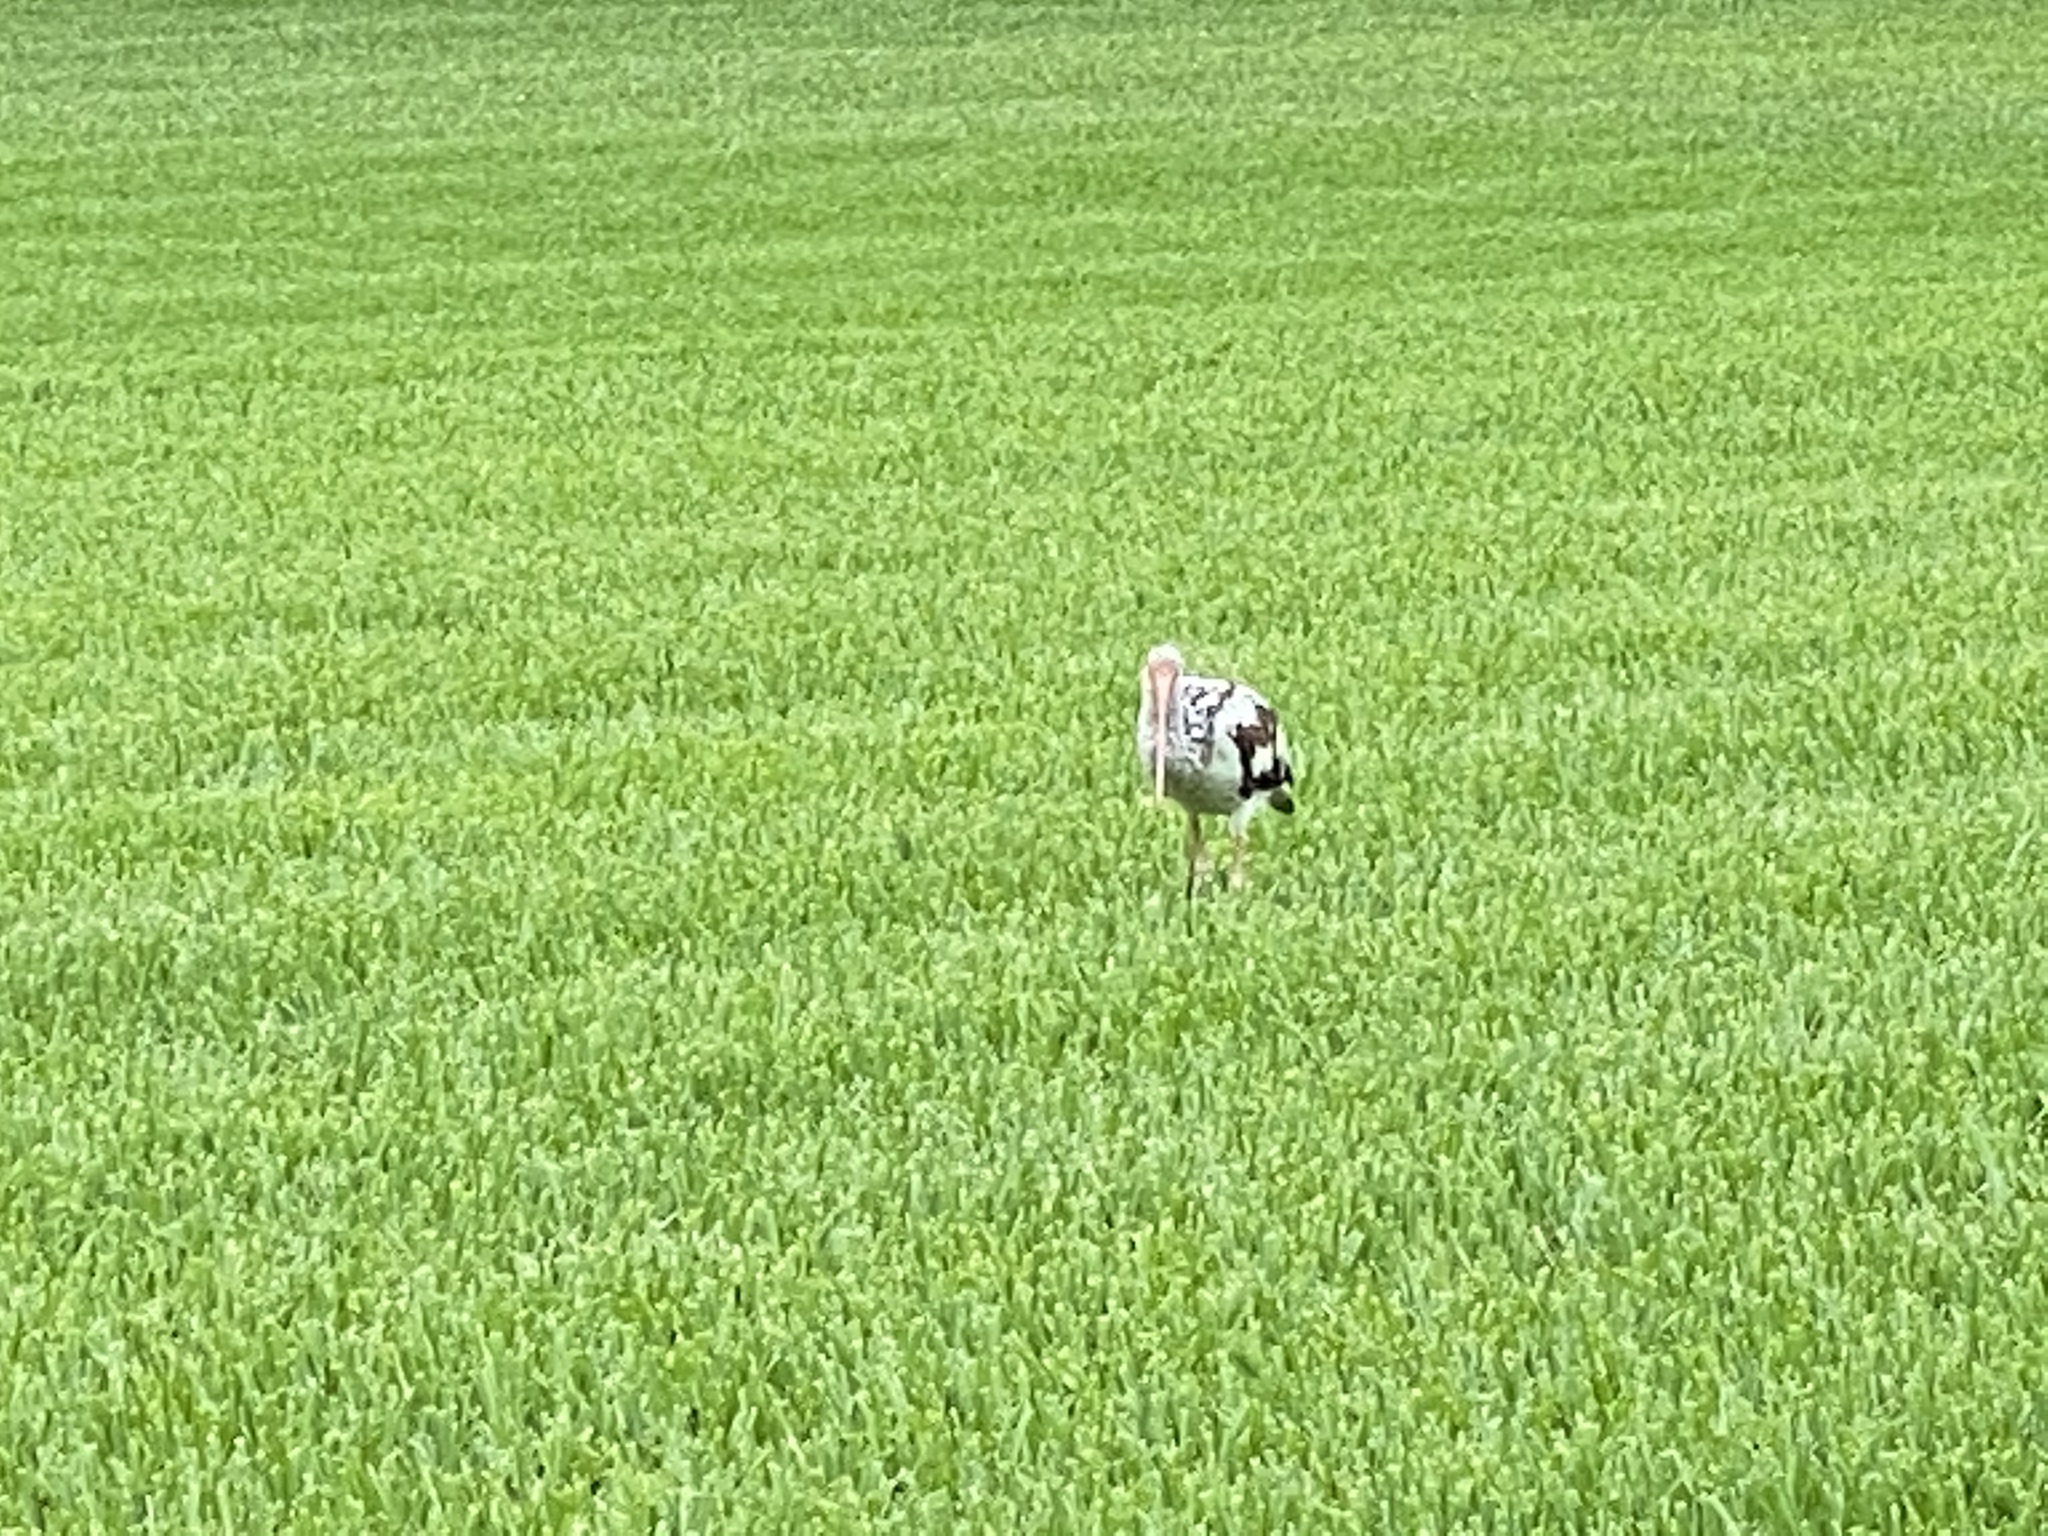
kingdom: Animalia
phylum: Chordata
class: Aves
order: Pelecaniformes
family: Threskiornithidae
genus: Eudocimus
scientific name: Eudocimus albus
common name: White ibis
